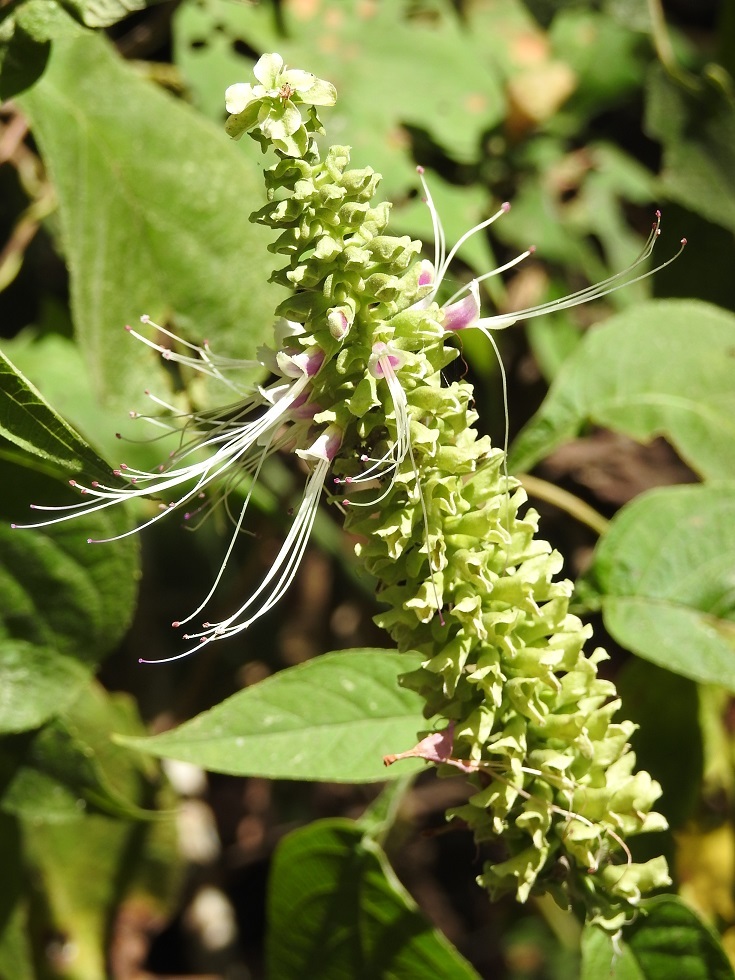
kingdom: Plantae
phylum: Tracheophyta
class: Magnoliopsida
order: Lamiales
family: Lamiaceae
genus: Catoferia
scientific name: Catoferia chiapensis
